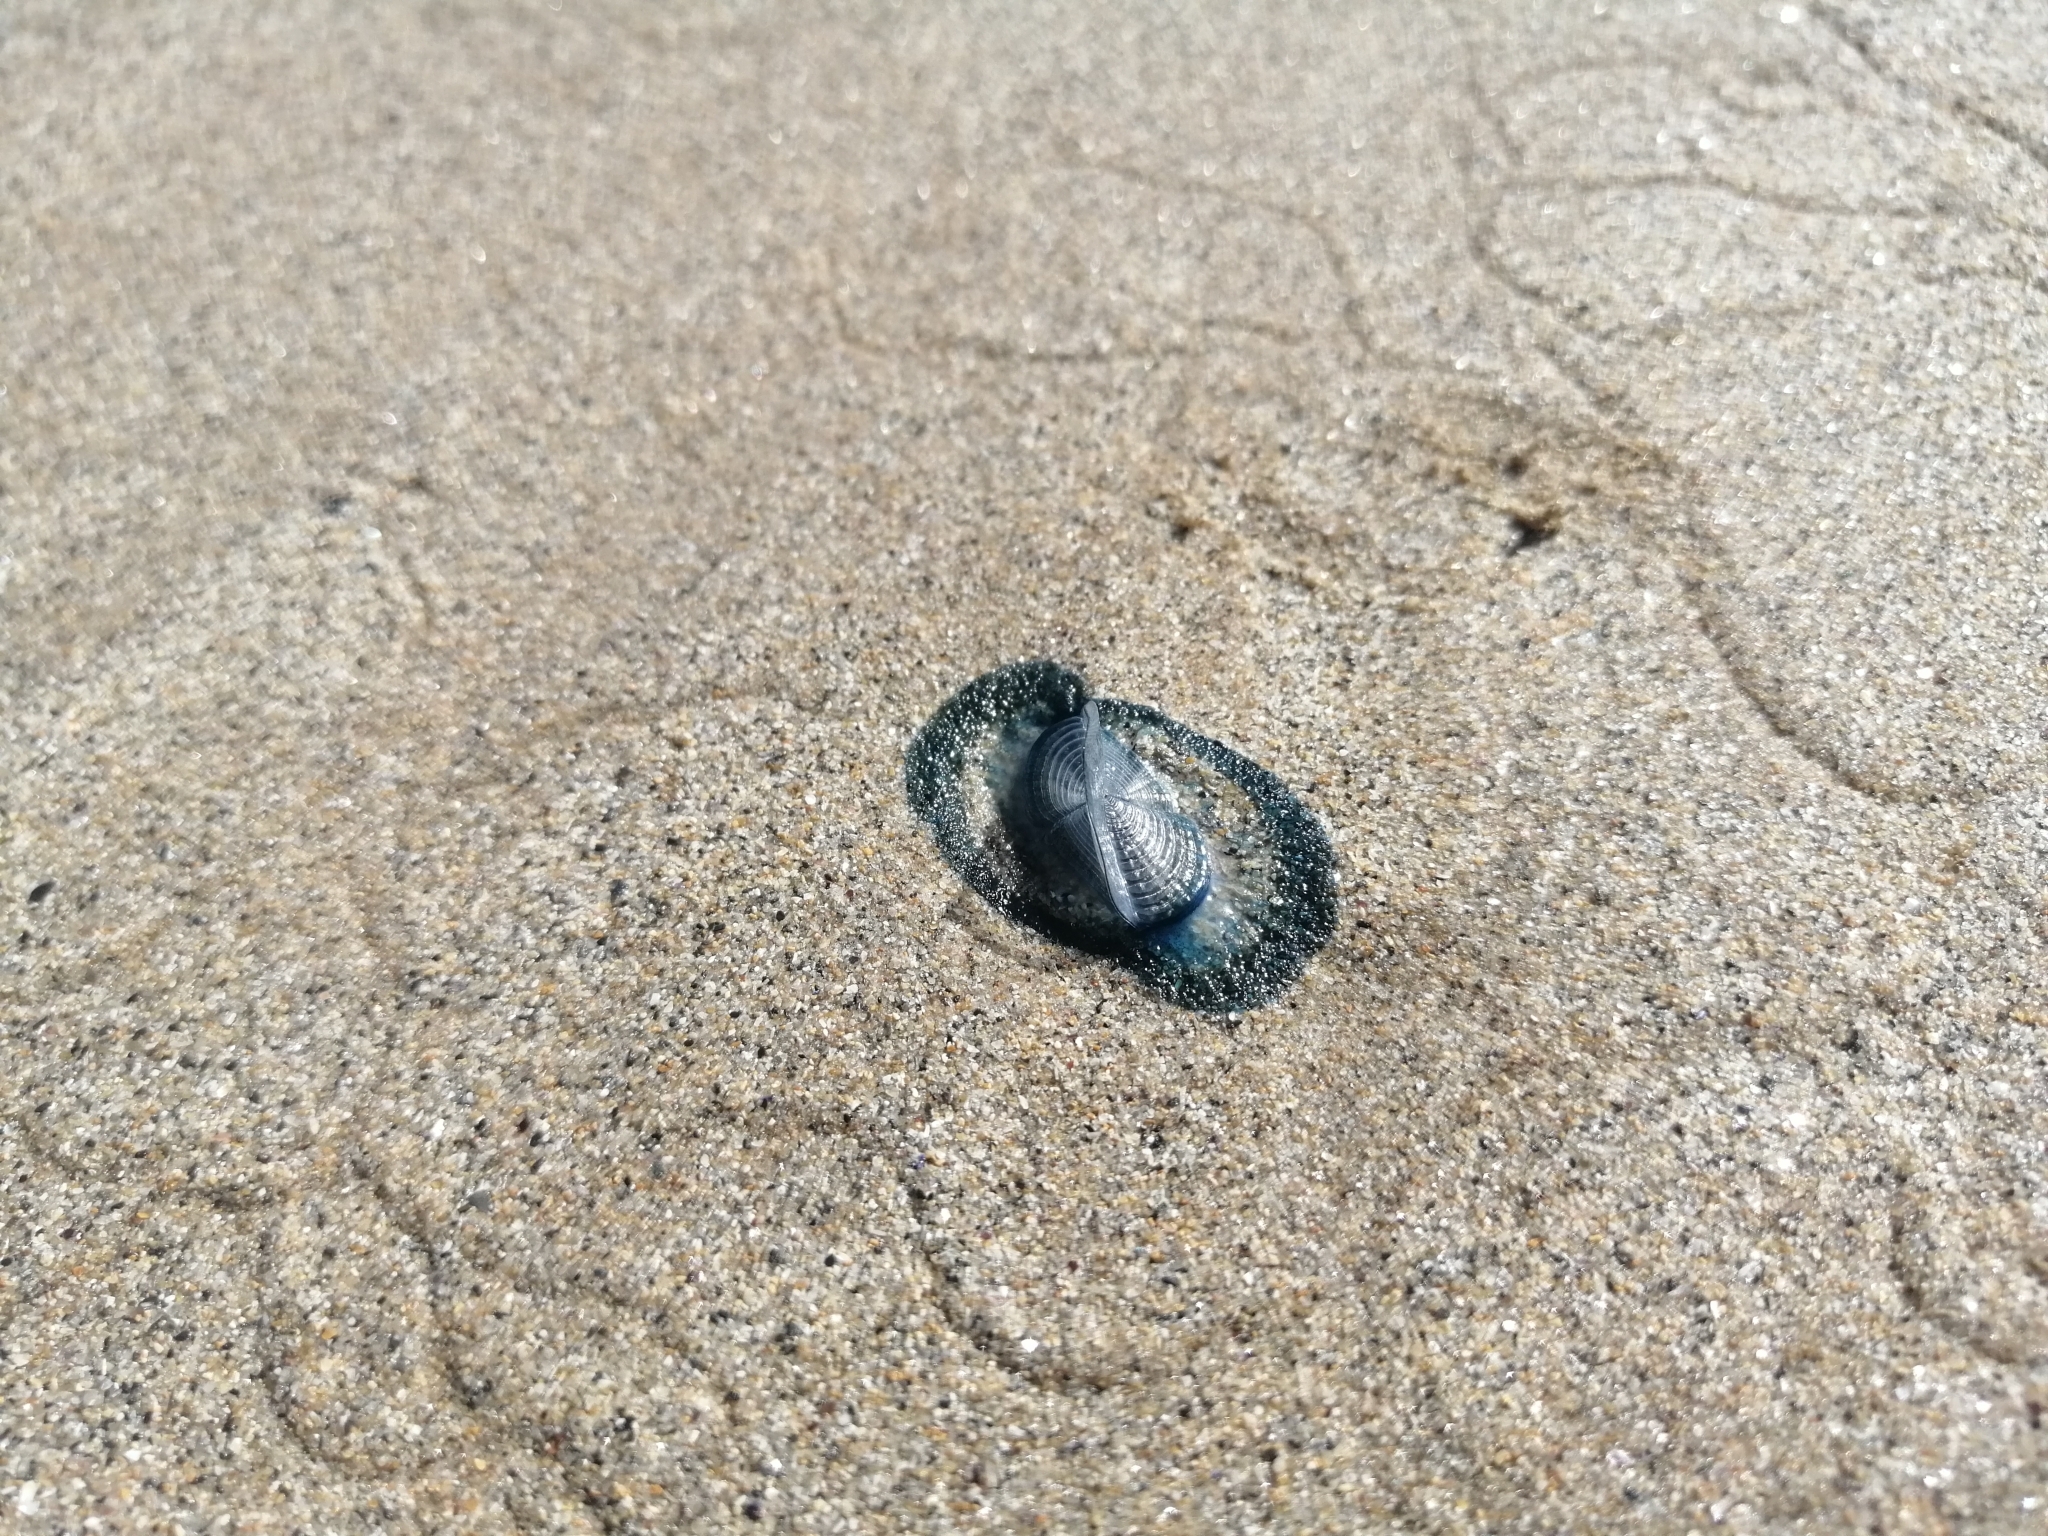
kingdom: Animalia
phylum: Cnidaria
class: Hydrozoa
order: Anthoathecata
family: Porpitidae
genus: Velella
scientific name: Velella velella
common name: By-the-wind-sailor
